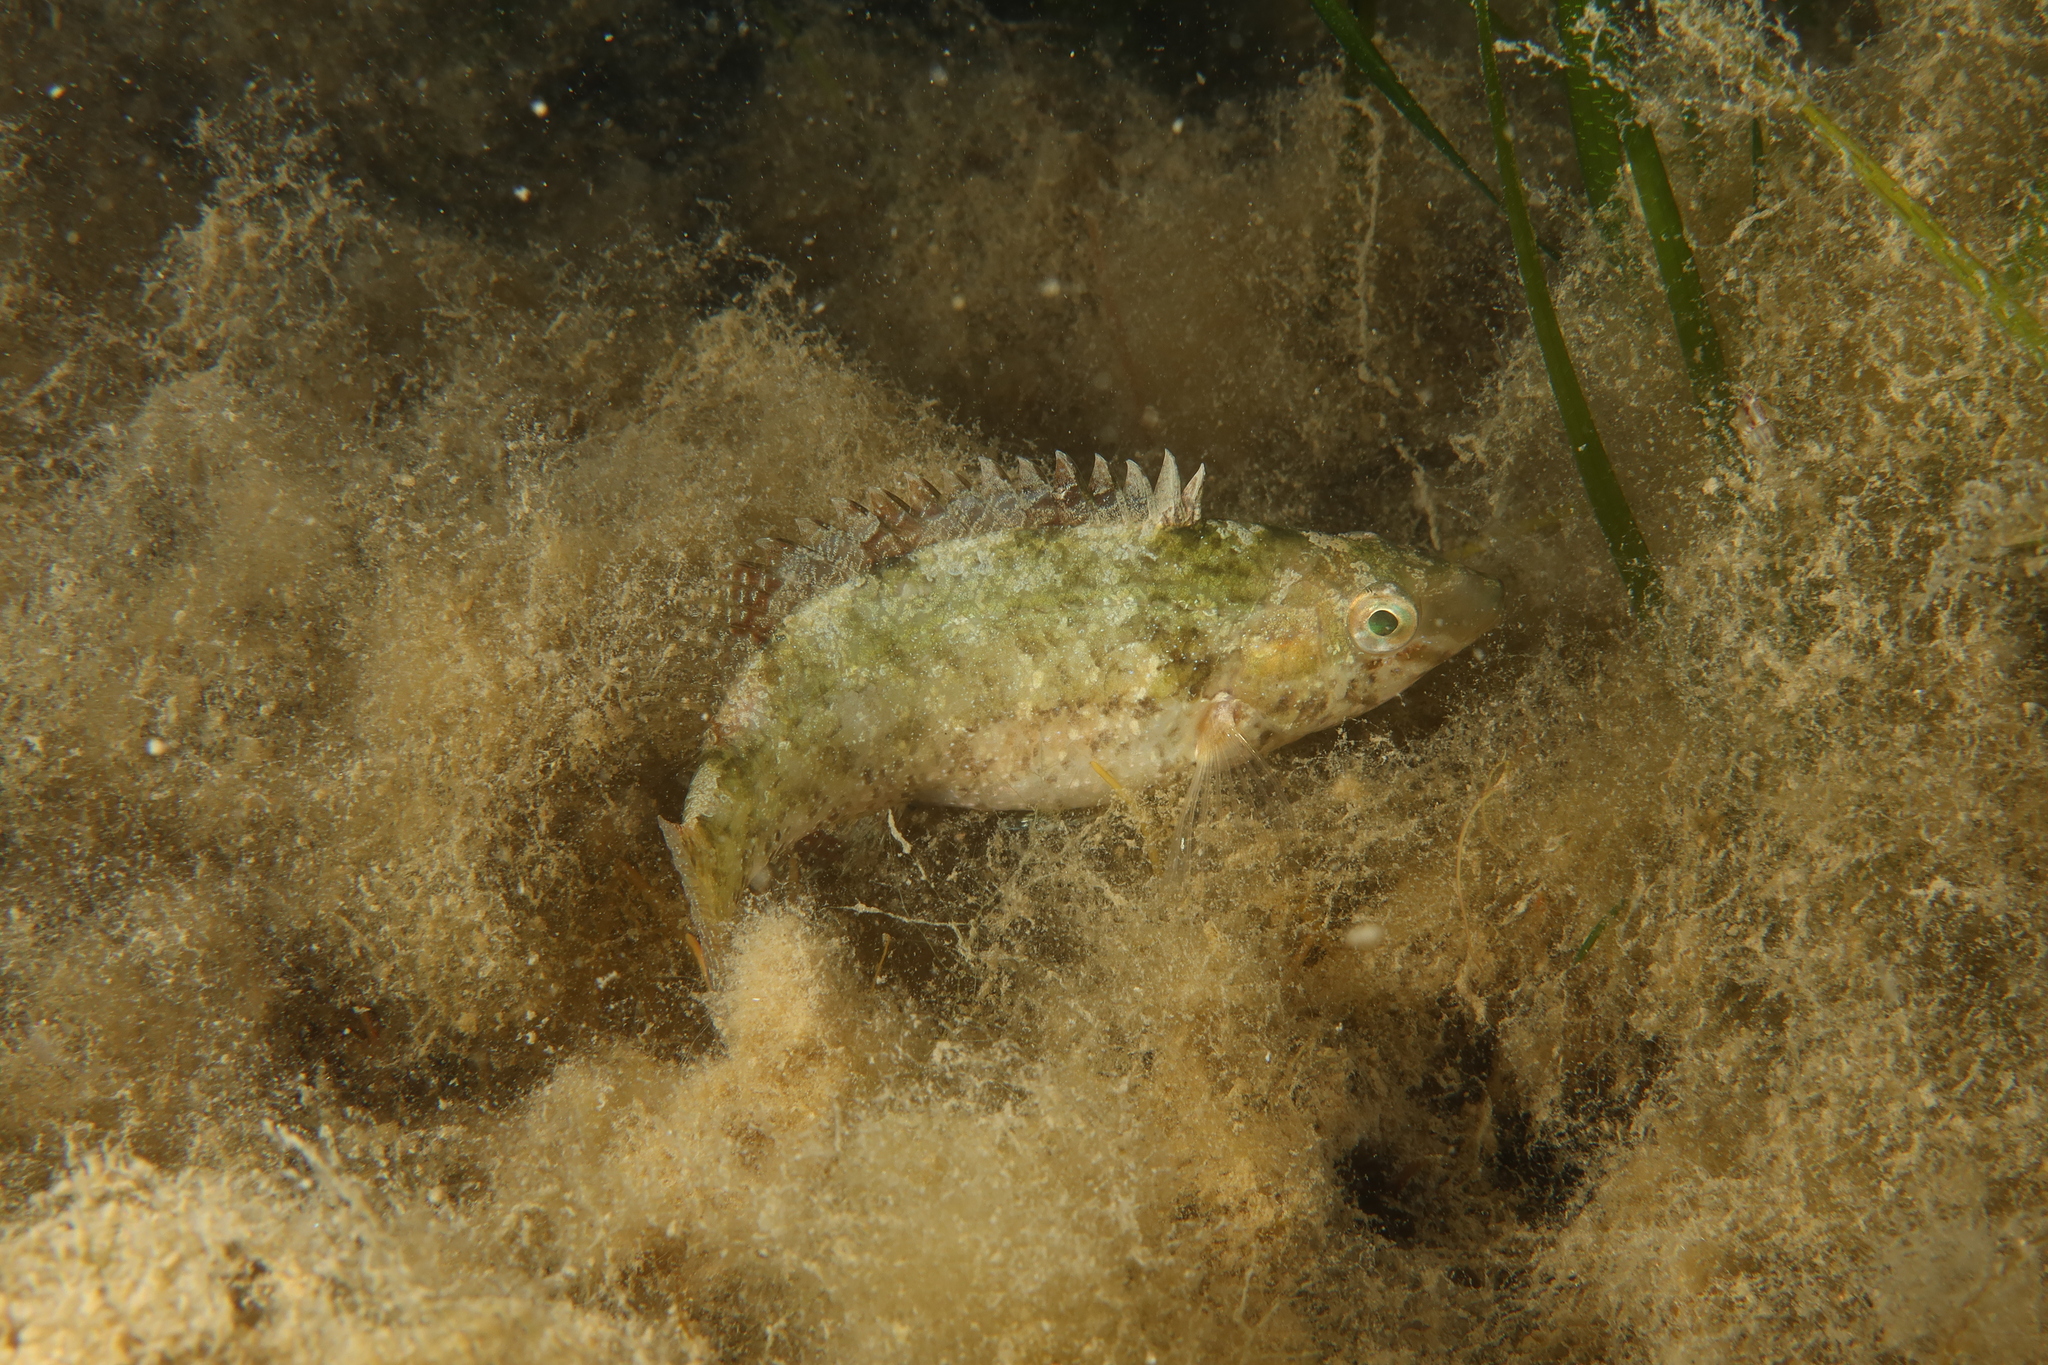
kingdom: Animalia
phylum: Chordata
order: Perciformes
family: Labridae
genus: Symphodus
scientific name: Symphodus cinereus
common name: Grey wrasse
